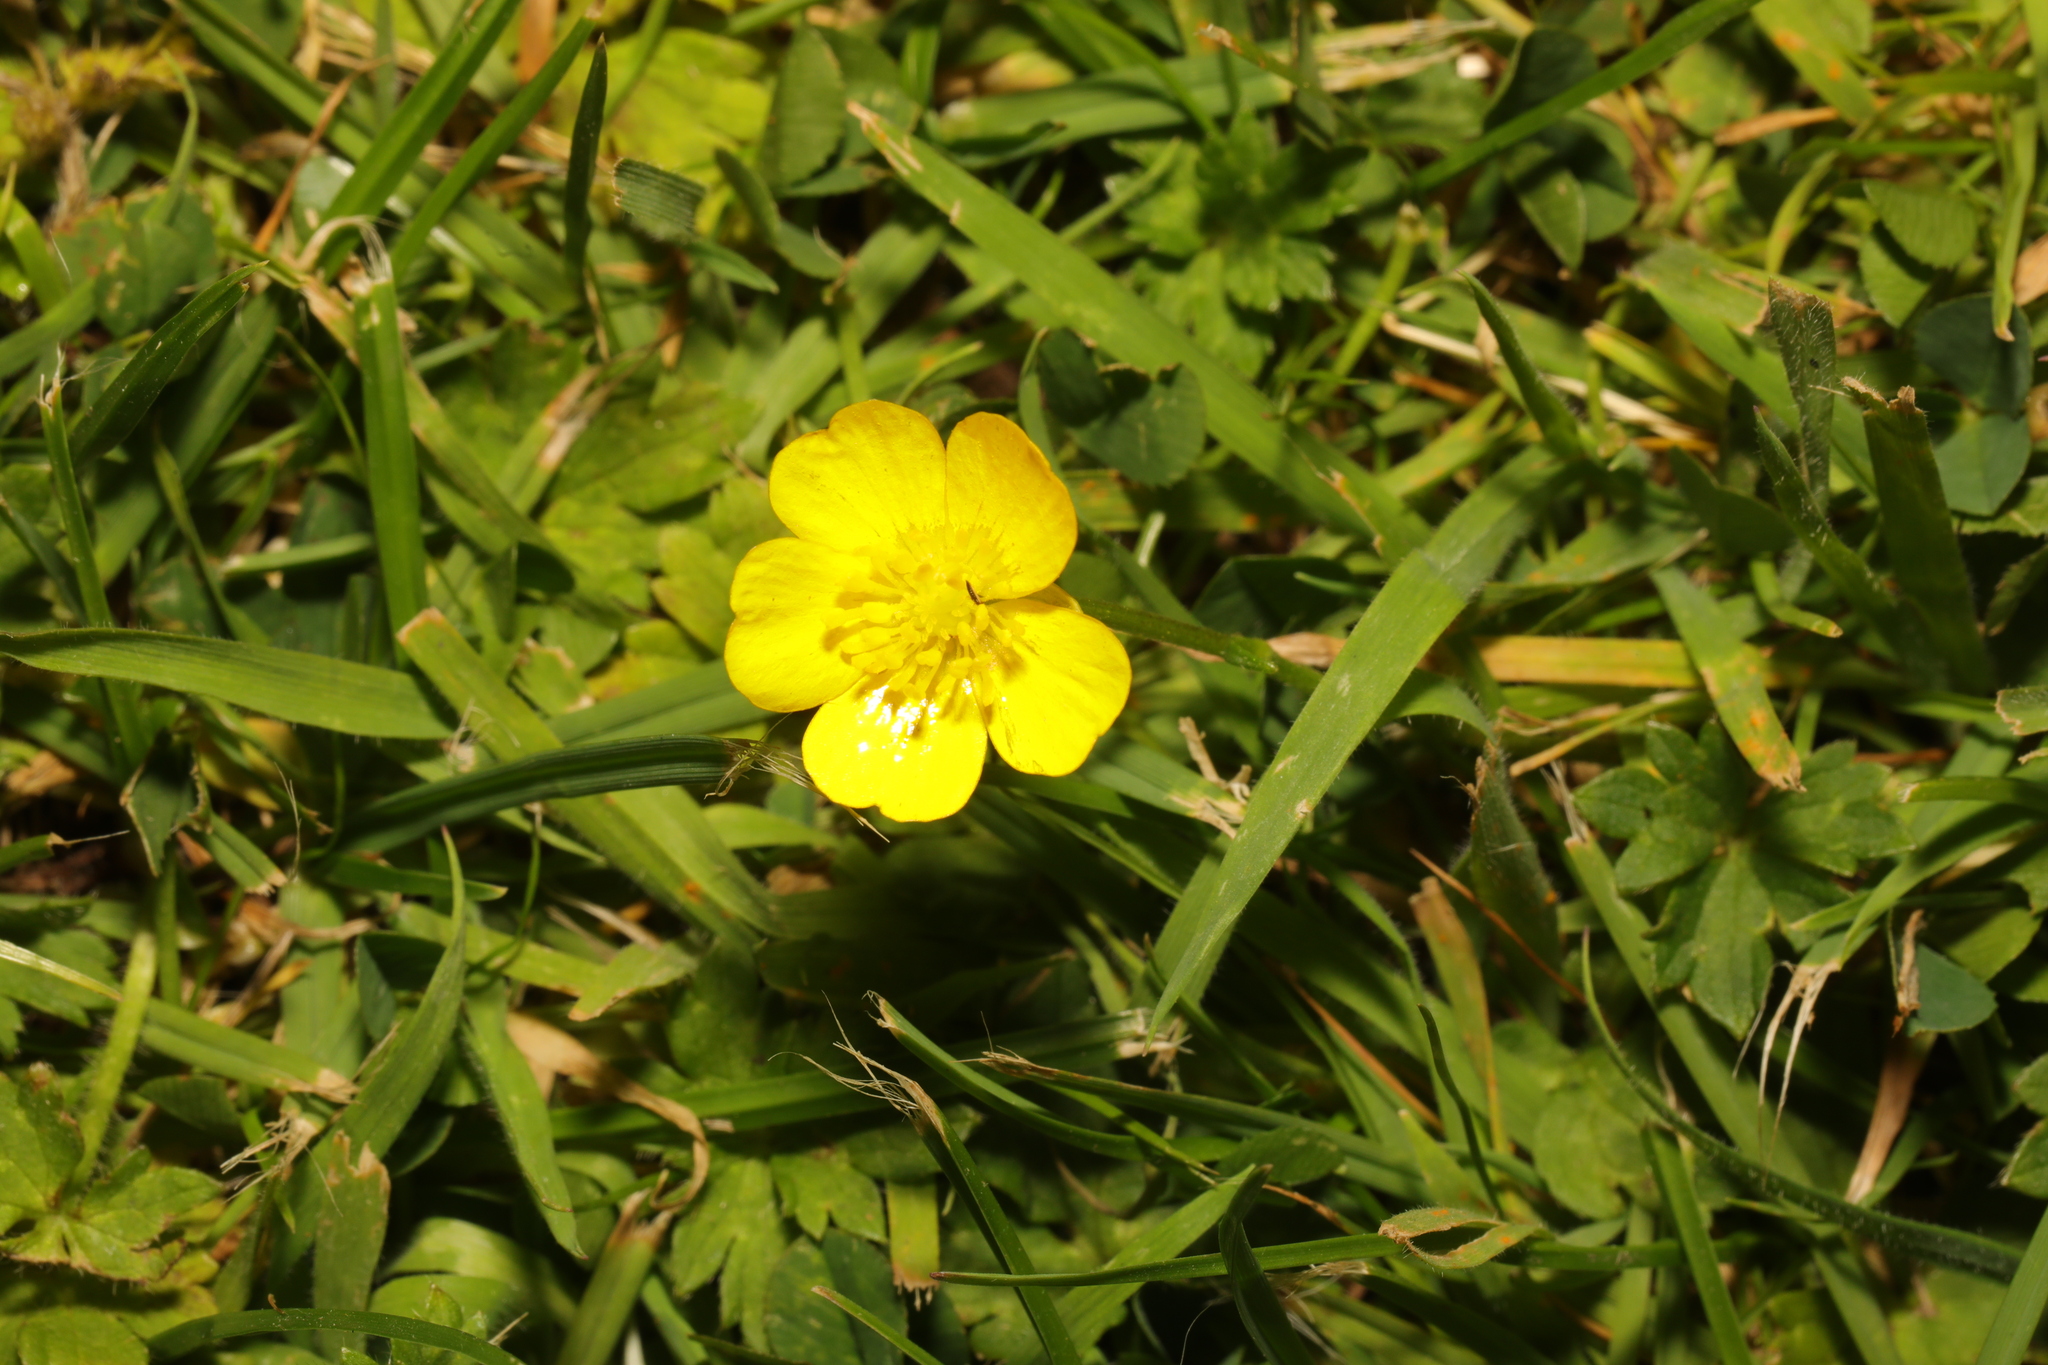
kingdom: Plantae
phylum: Tracheophyta
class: Magnoliopsida
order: Ranunculales
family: Ranunculaceae
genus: Ranunculus
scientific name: Ranunculus repens
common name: Creeping buttercup
